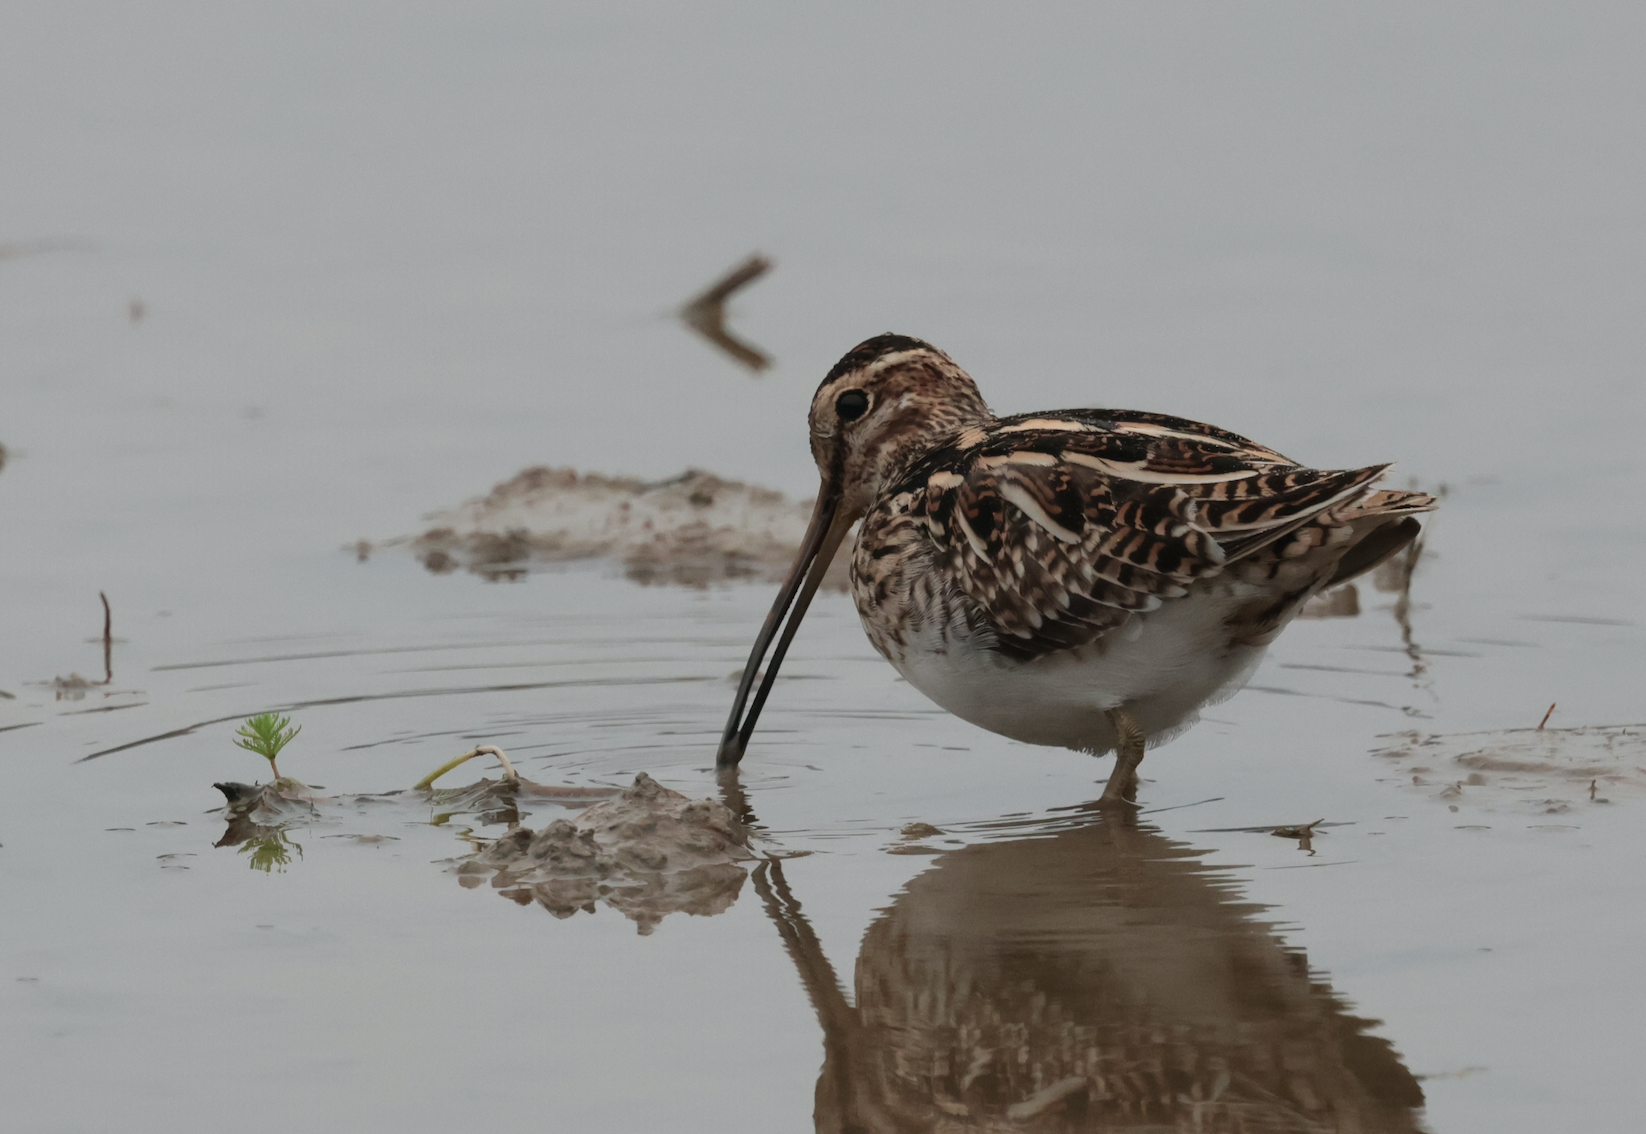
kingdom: Animalia
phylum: Chordata
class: Aves
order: Charadriiformes
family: Scolopacidae
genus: Gallinago
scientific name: Gallinago gallinago
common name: Common snipe
